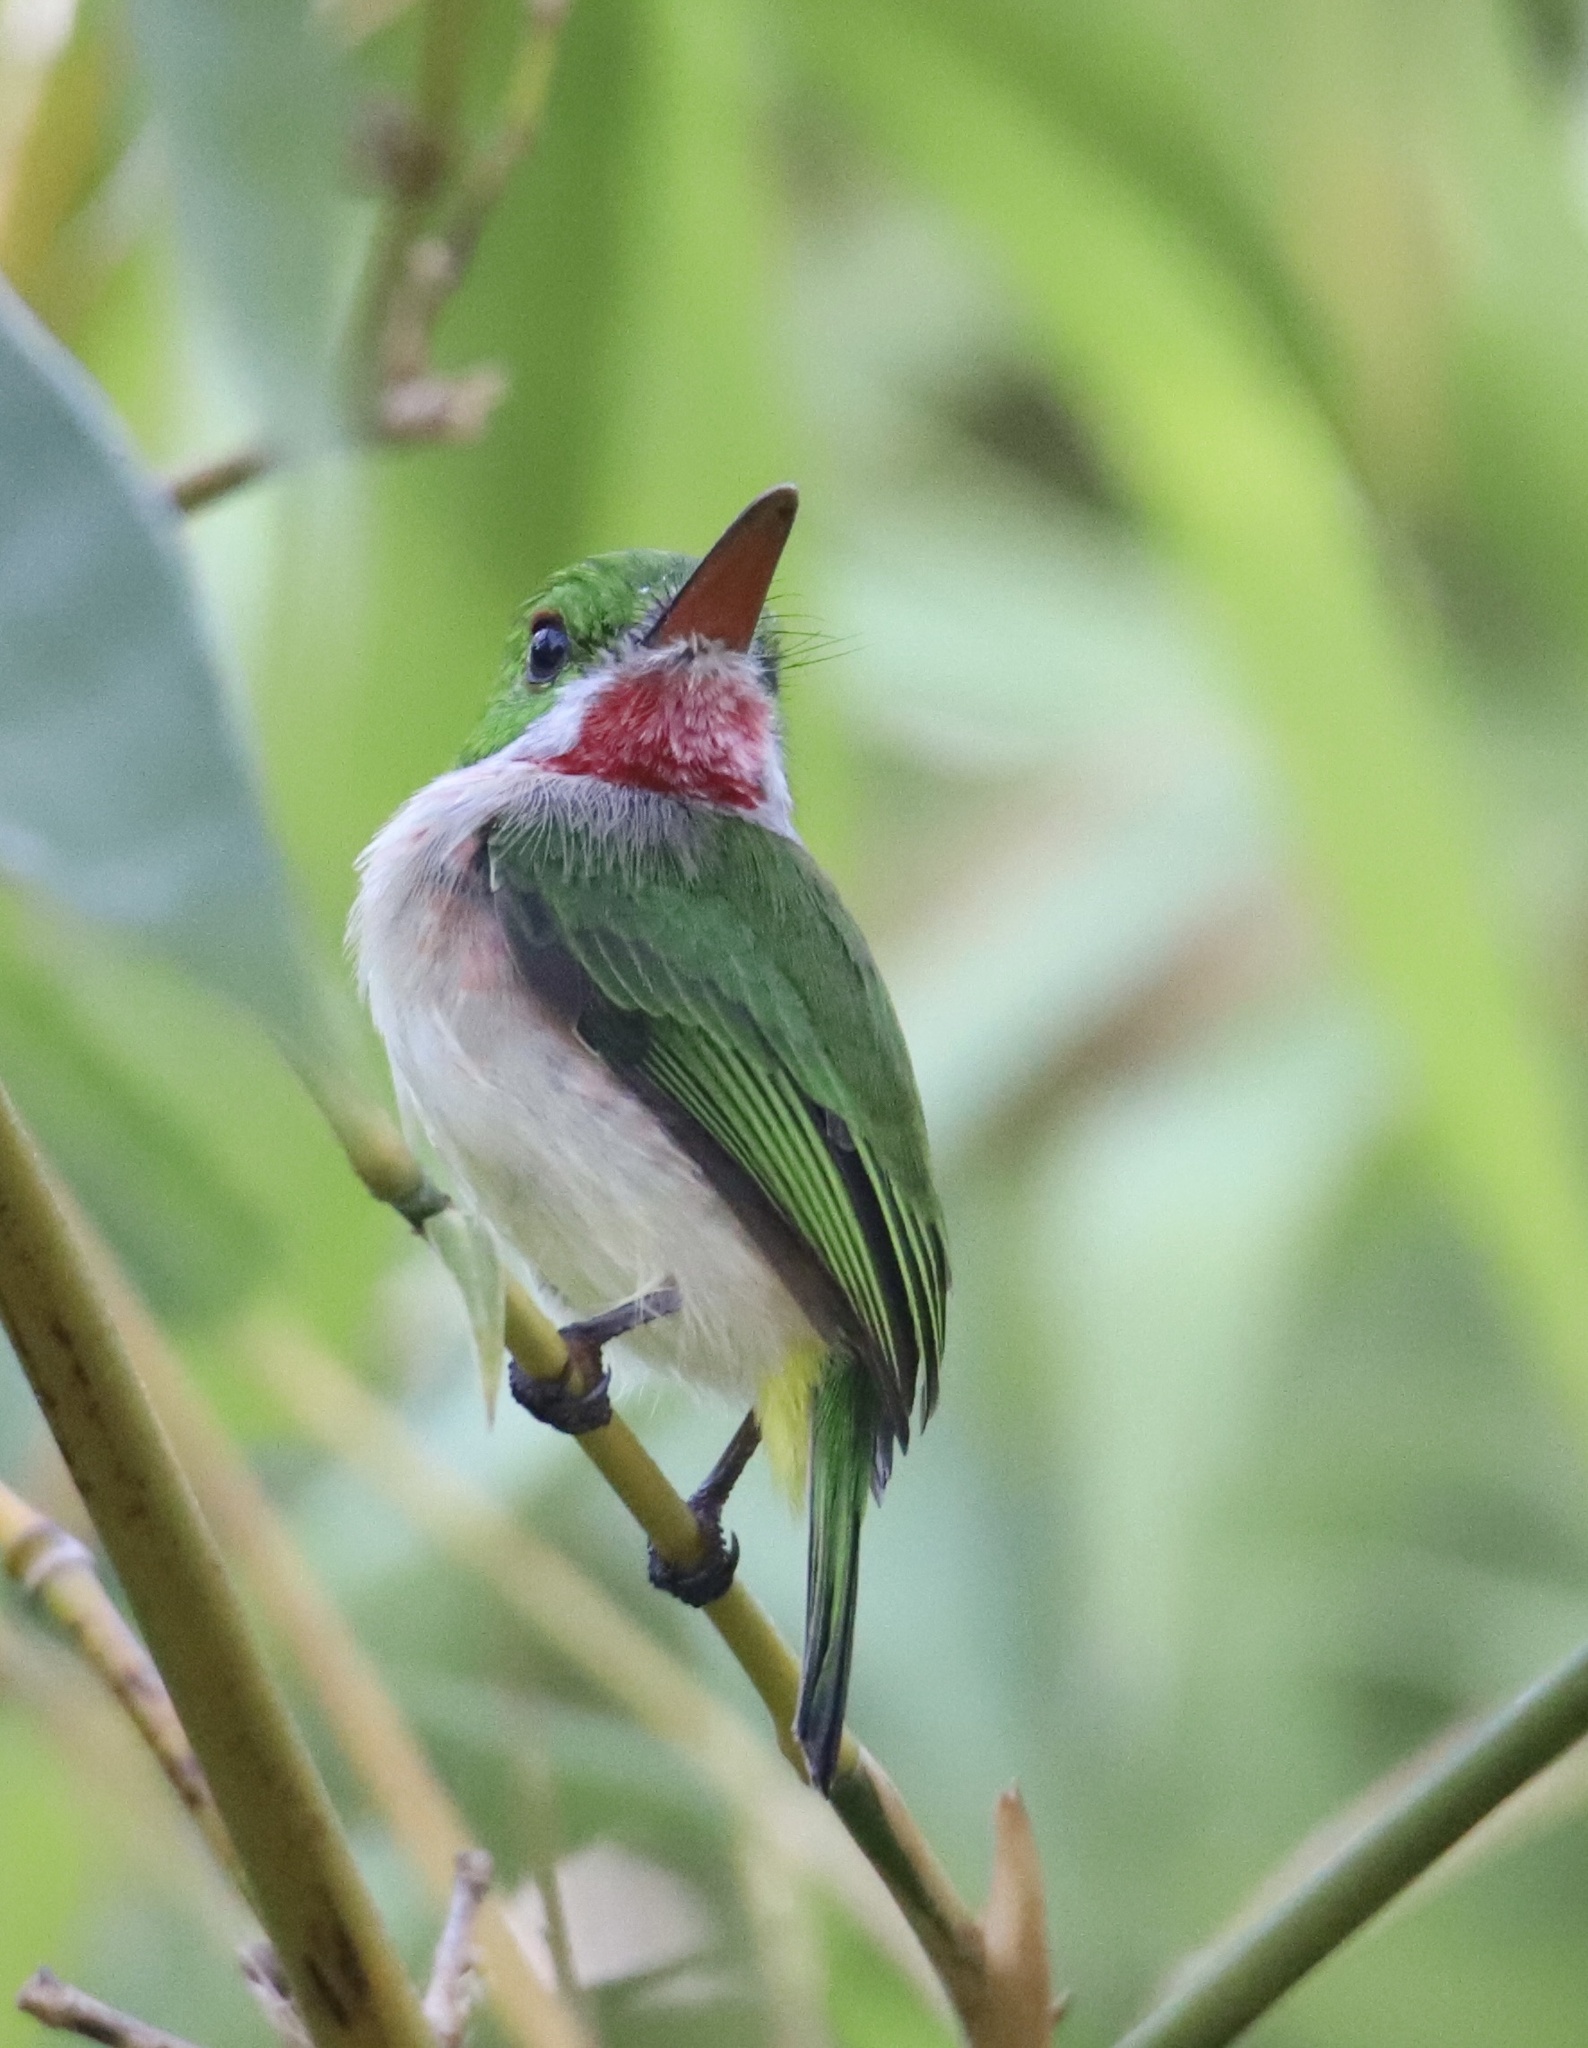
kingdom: Animalia
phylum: Chordata
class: Aves
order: Coraciiformes
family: Todidae
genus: Todus
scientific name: Todus subulatus
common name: Broad-billed tody
